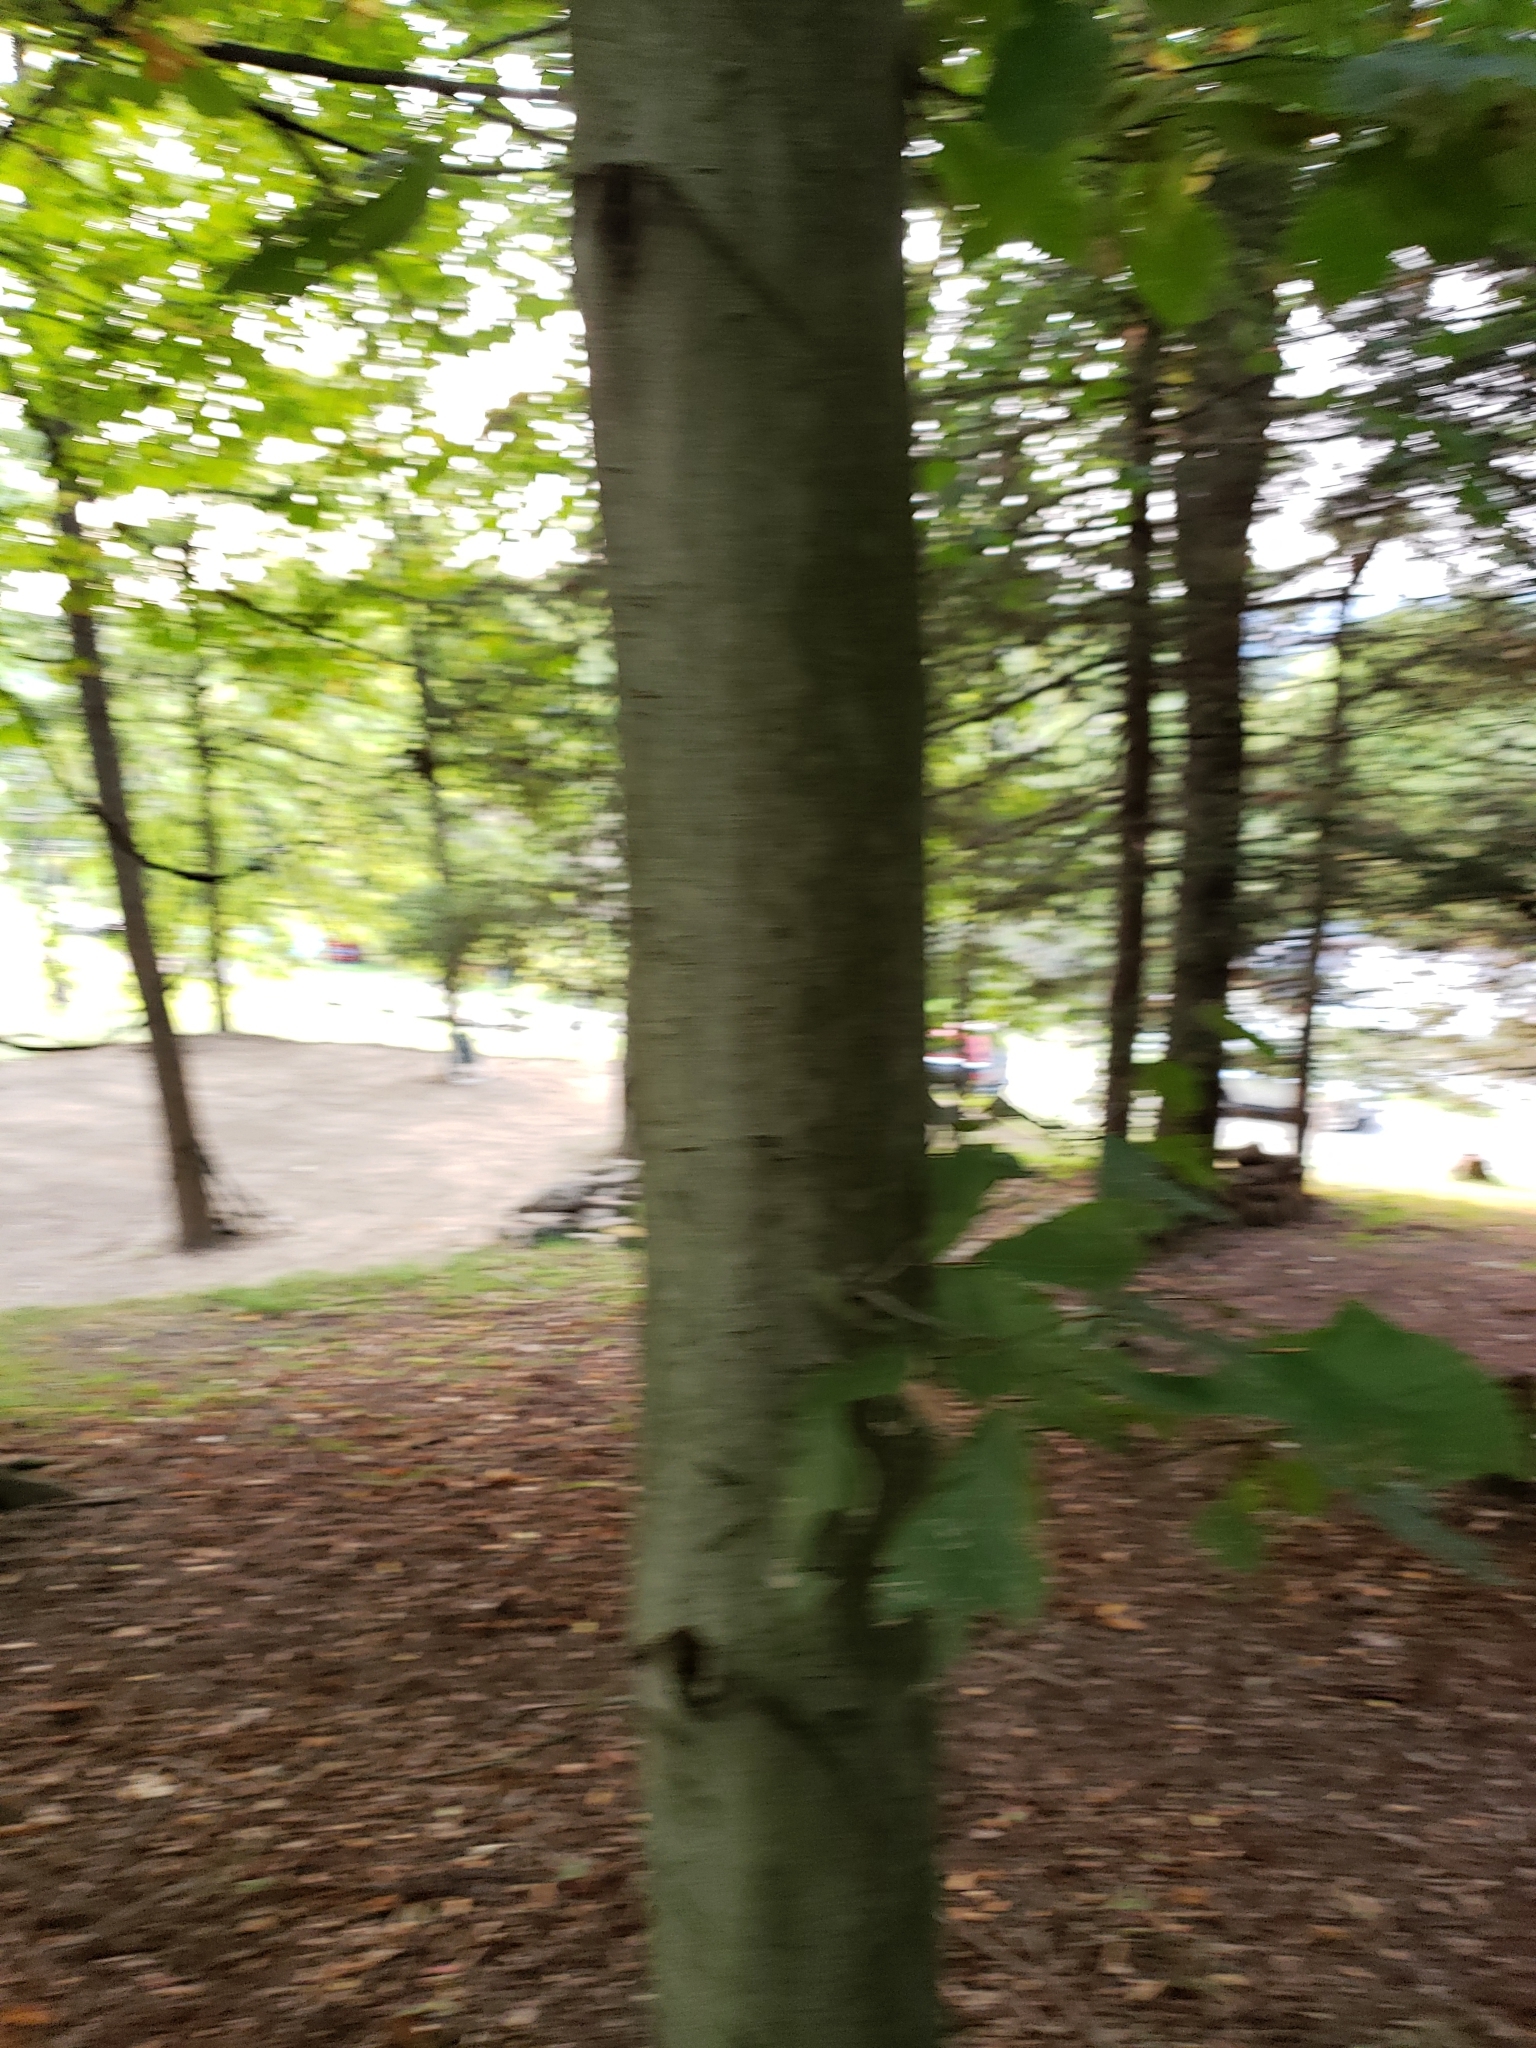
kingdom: Plantae
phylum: Tracheophyta
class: Magnoliopsida
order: Fagales
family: Fagaceae
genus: Fagus
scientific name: Fagus grandifolia
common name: American beech
